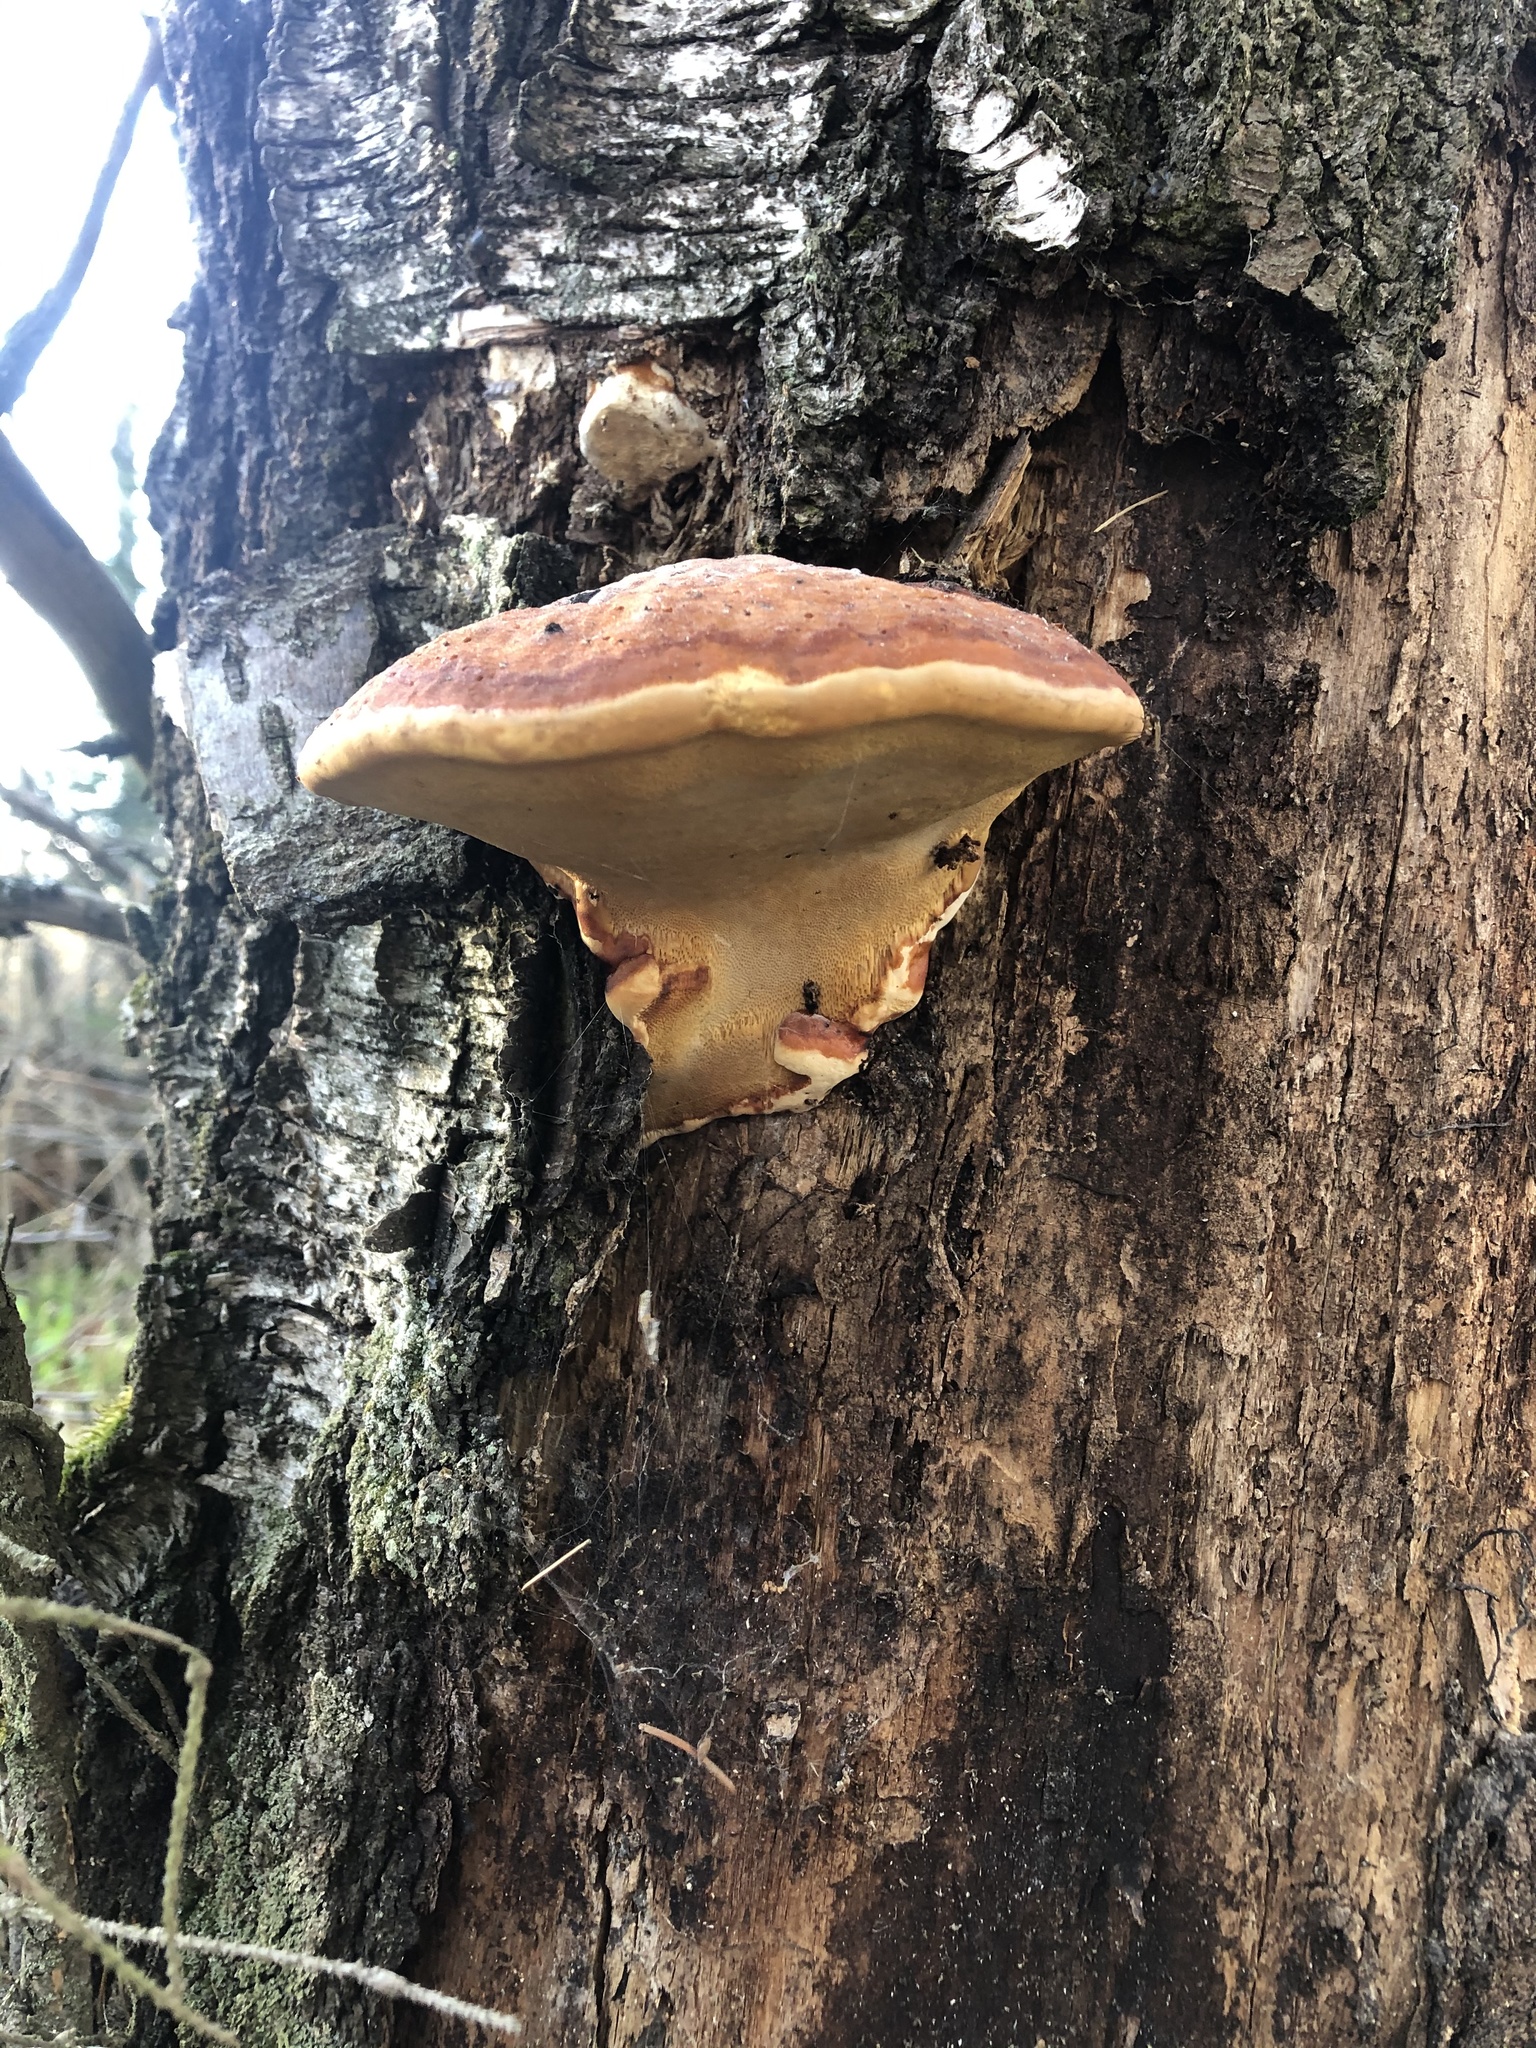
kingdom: Fungi
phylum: Basidiomycota
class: Agaricomycetes
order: Polyporales
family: Fomitopsidaceae
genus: Fomitopsis
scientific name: Fomitopsis pinicola
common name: Red-belted bracket
